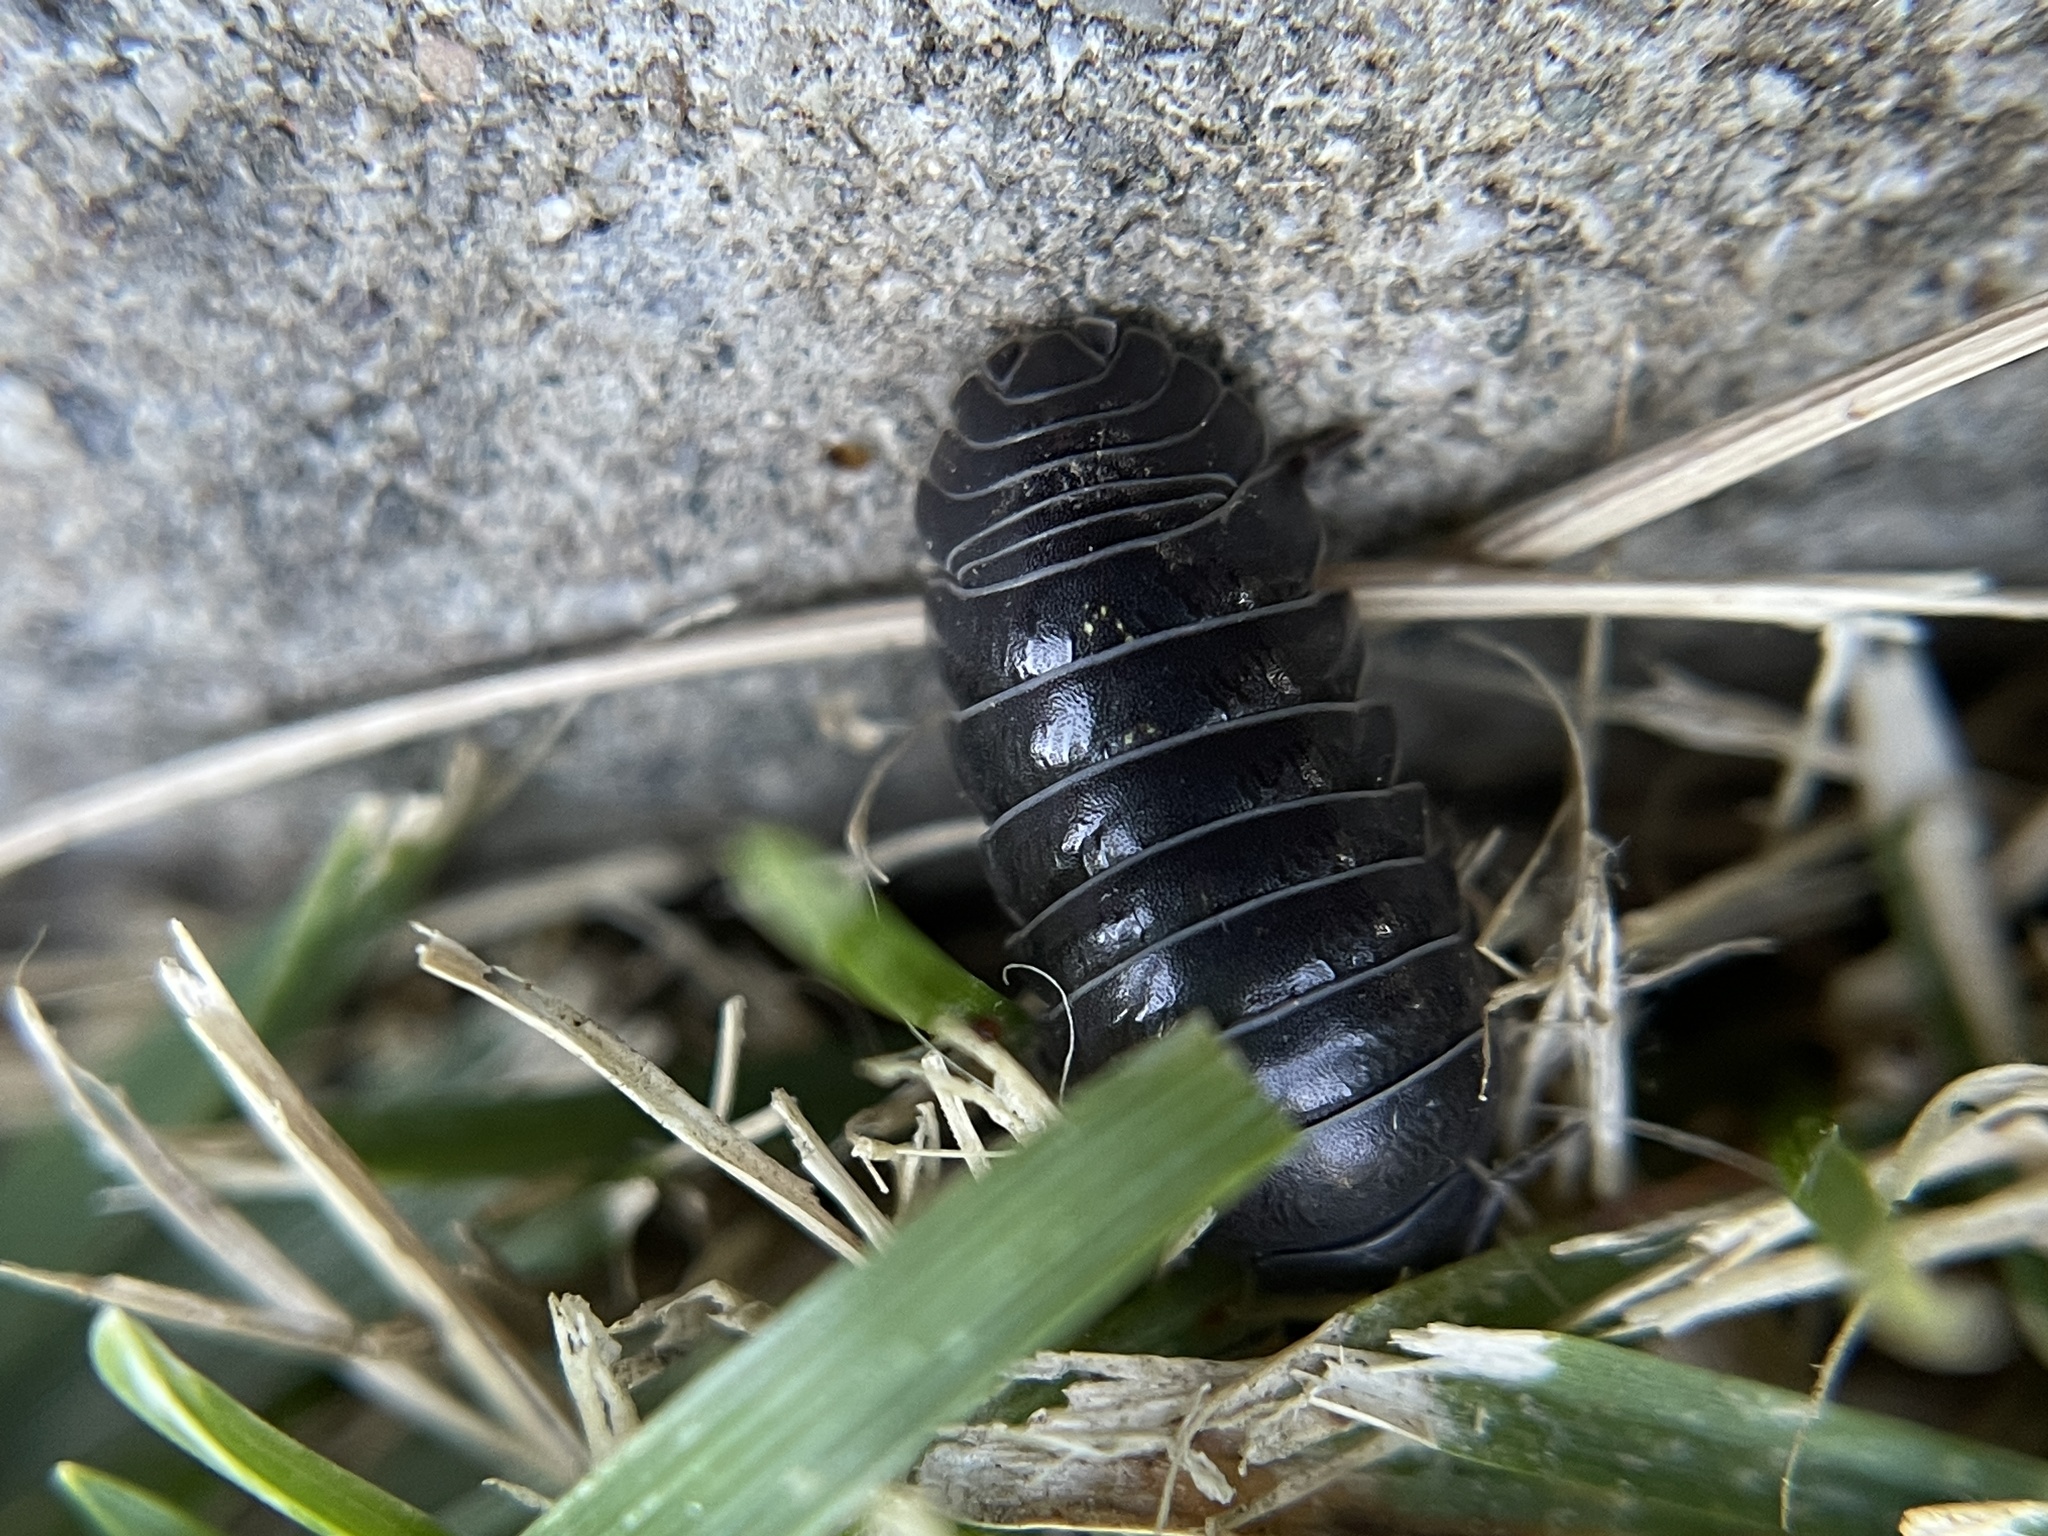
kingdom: Animalia
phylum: Arthropoda
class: Malacostraca
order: Isopoda
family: Armadillidiidae
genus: Armadillidium
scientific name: Armadillidium vulgare
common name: Common pill woodlouse
